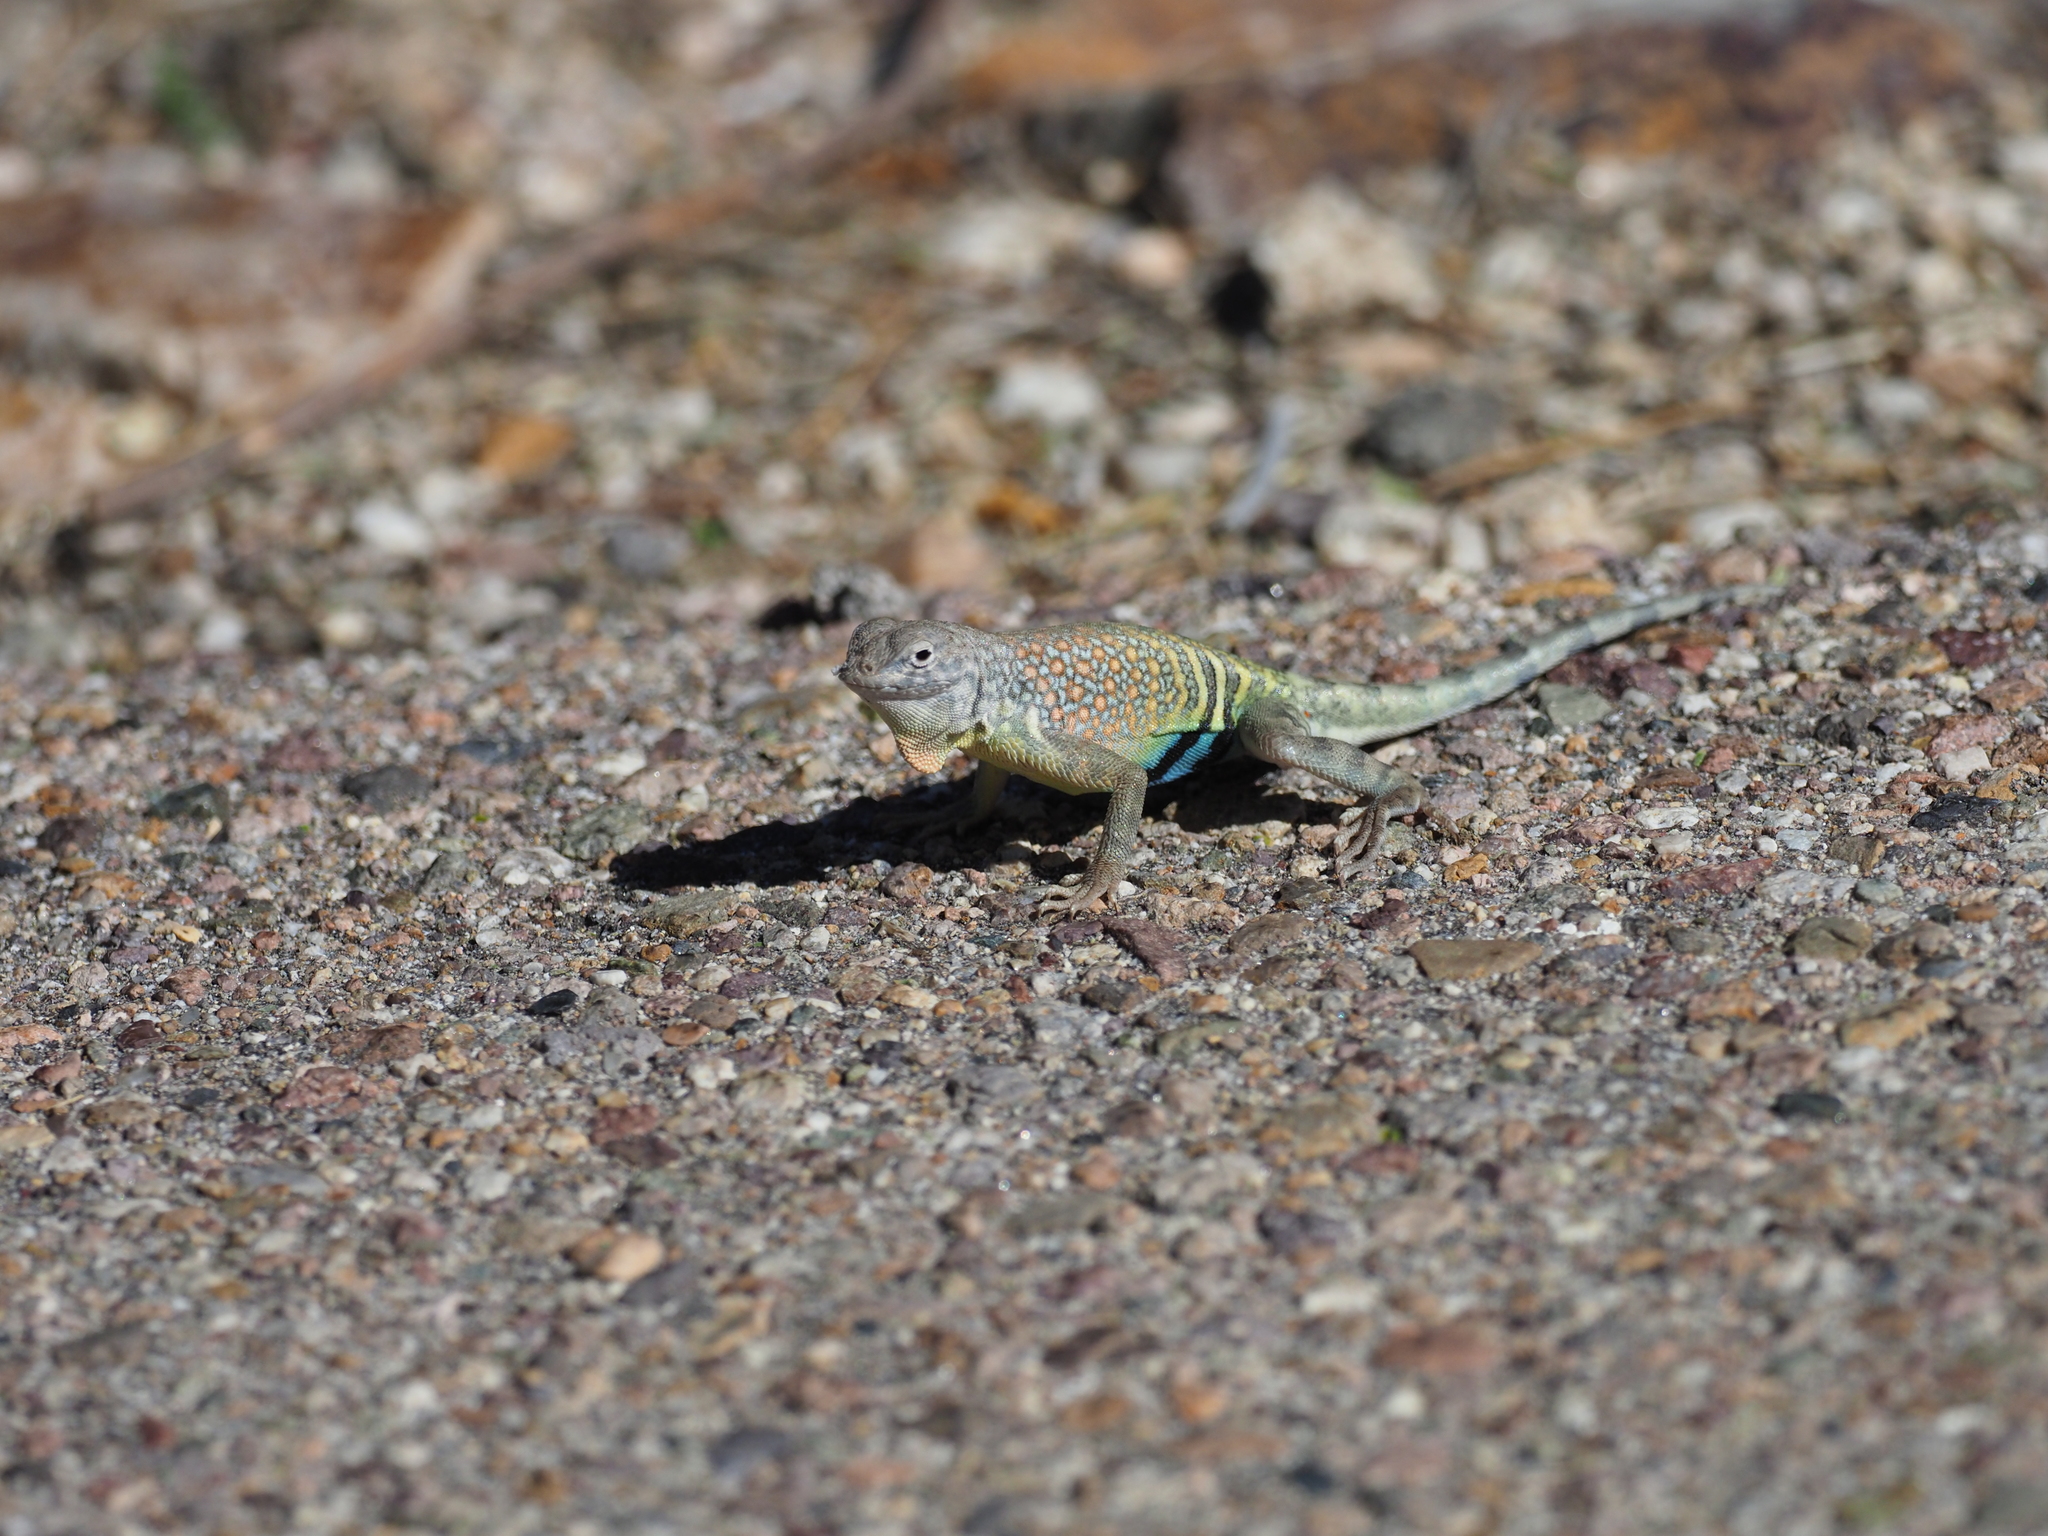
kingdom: Animalia
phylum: Chordata
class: Squamata
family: Phrynosomatidae
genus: Cophosaurus
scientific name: Cophosaurus texanus
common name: Greater earless lizard
